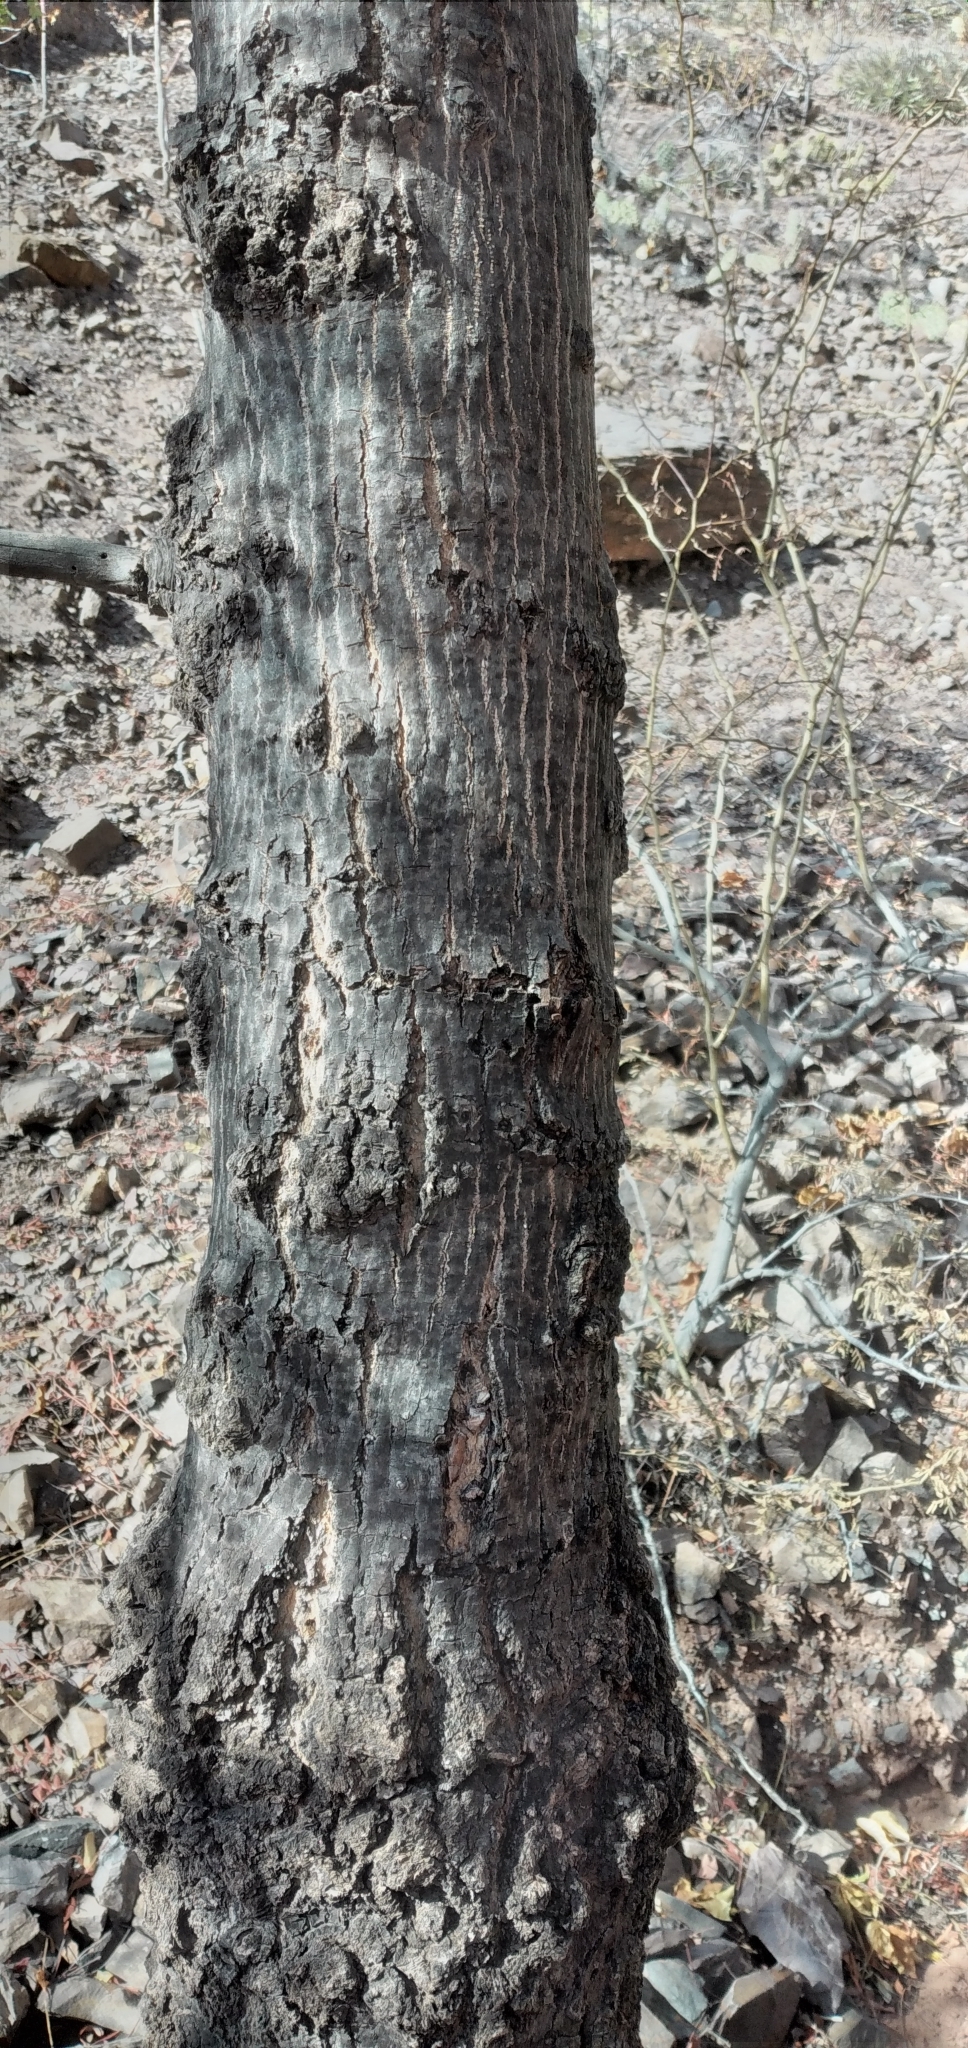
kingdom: Plantae
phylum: Tracheophyta
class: Magnoliopsida
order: Sapindales
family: Anacardiaceae
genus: Schinopsis
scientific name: Schinopsis lorentzii
